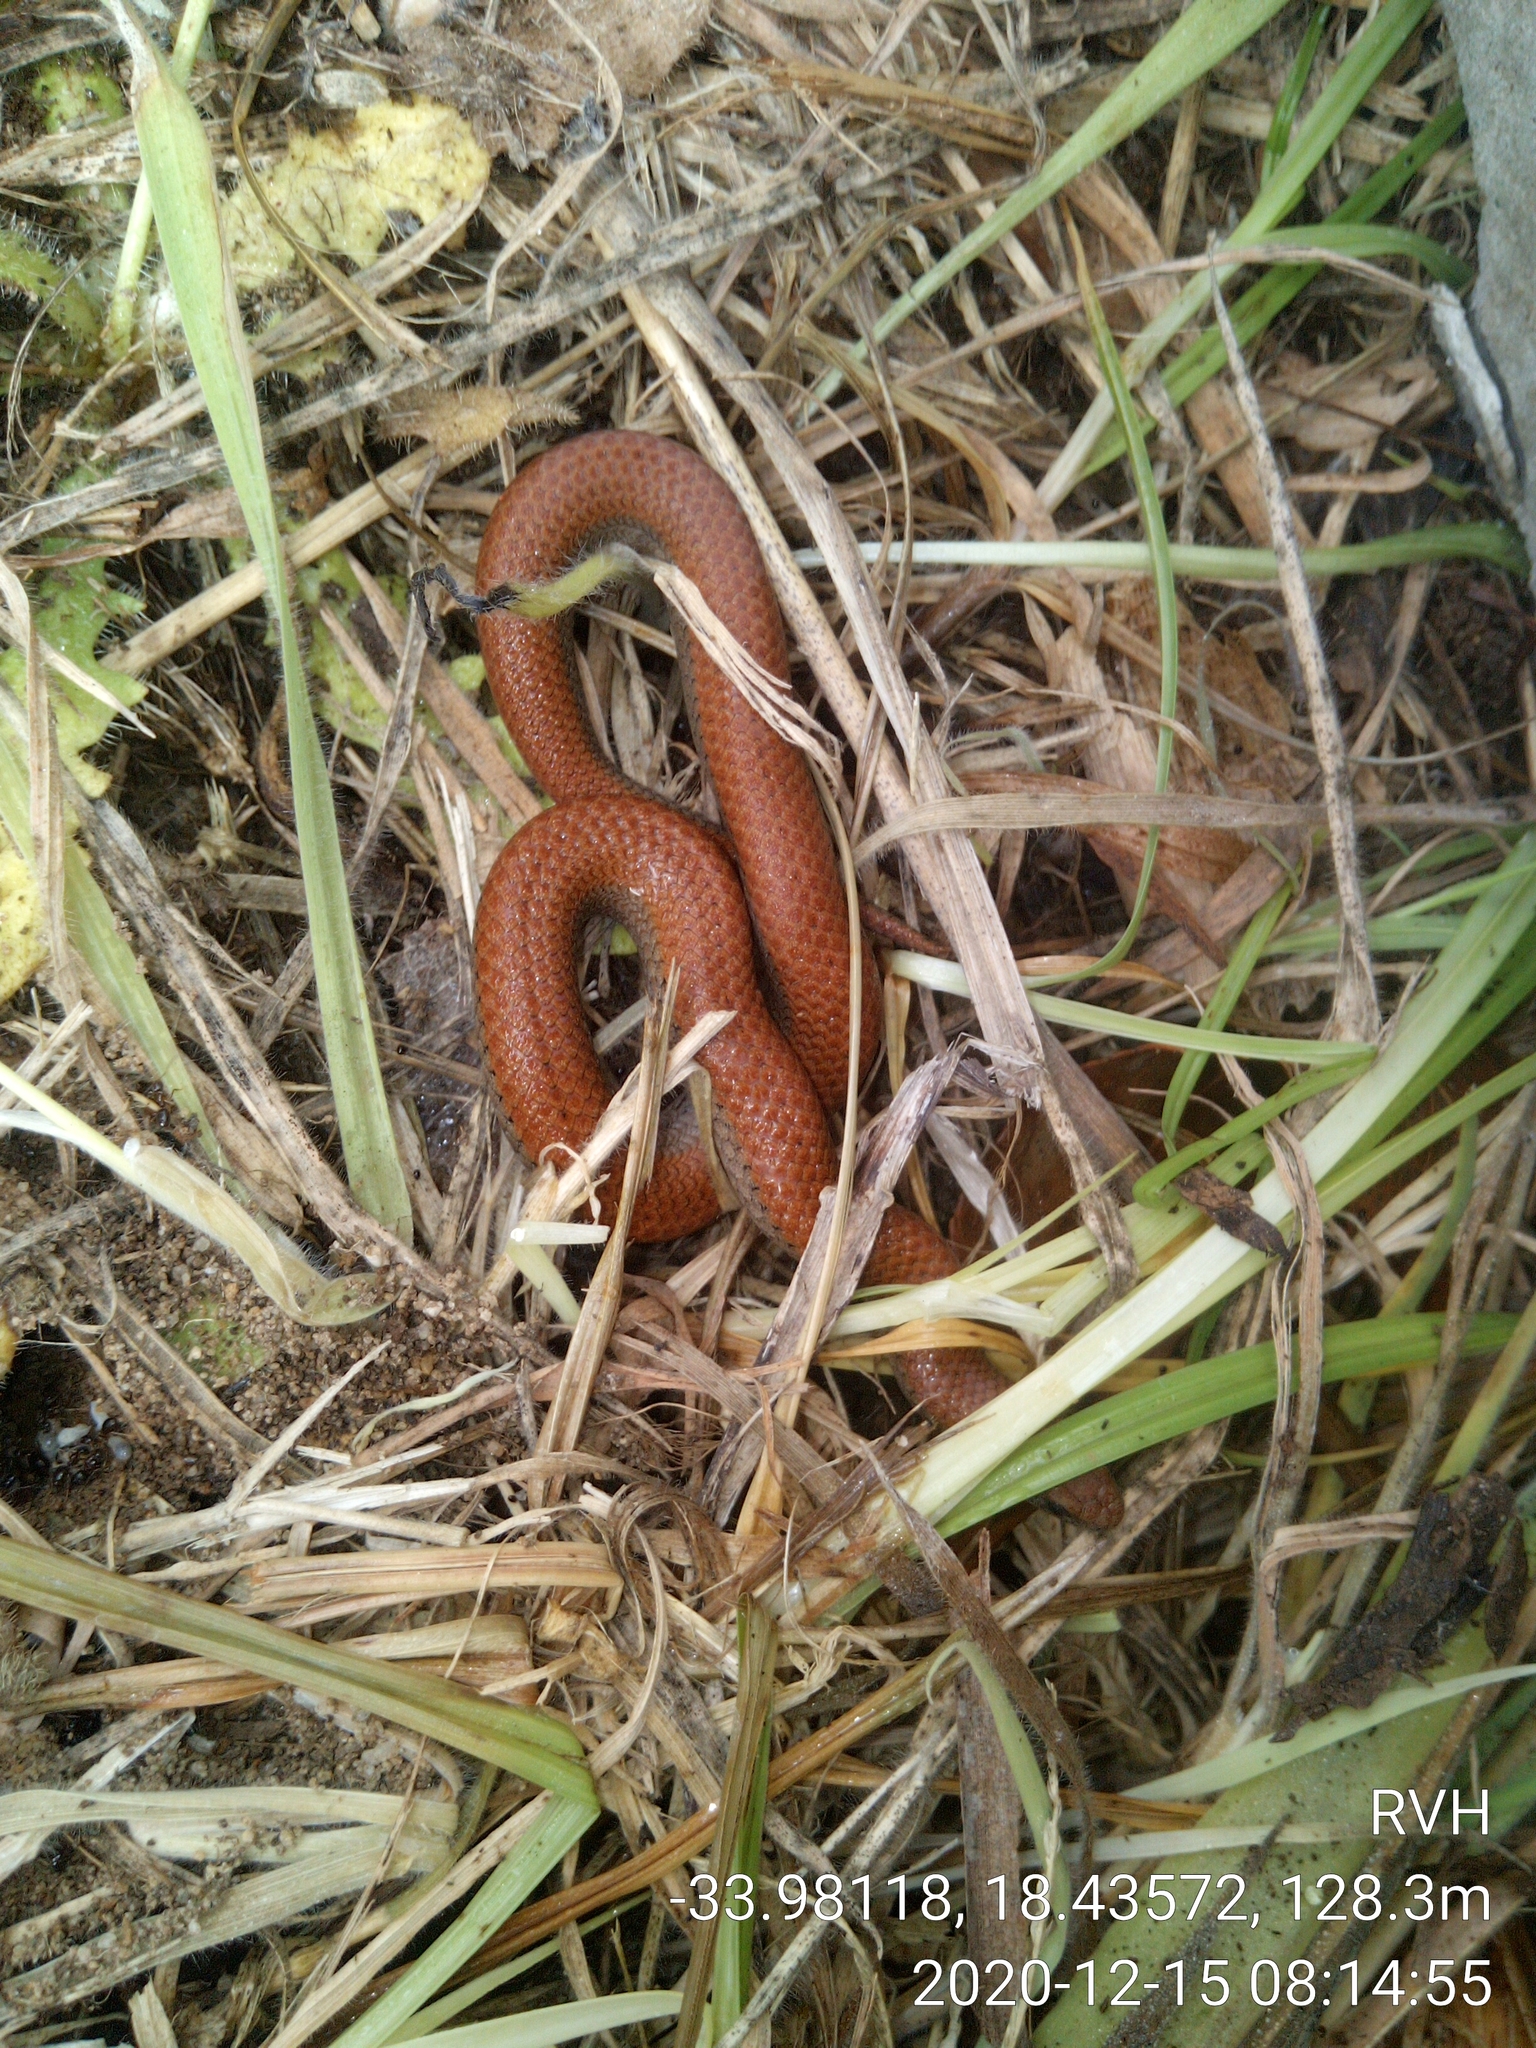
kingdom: Animalia
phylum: Chordata
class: Squamata
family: Pseudoxyrhophiidae
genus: Duberria
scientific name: Duberria lutrix
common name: Common slug eater
